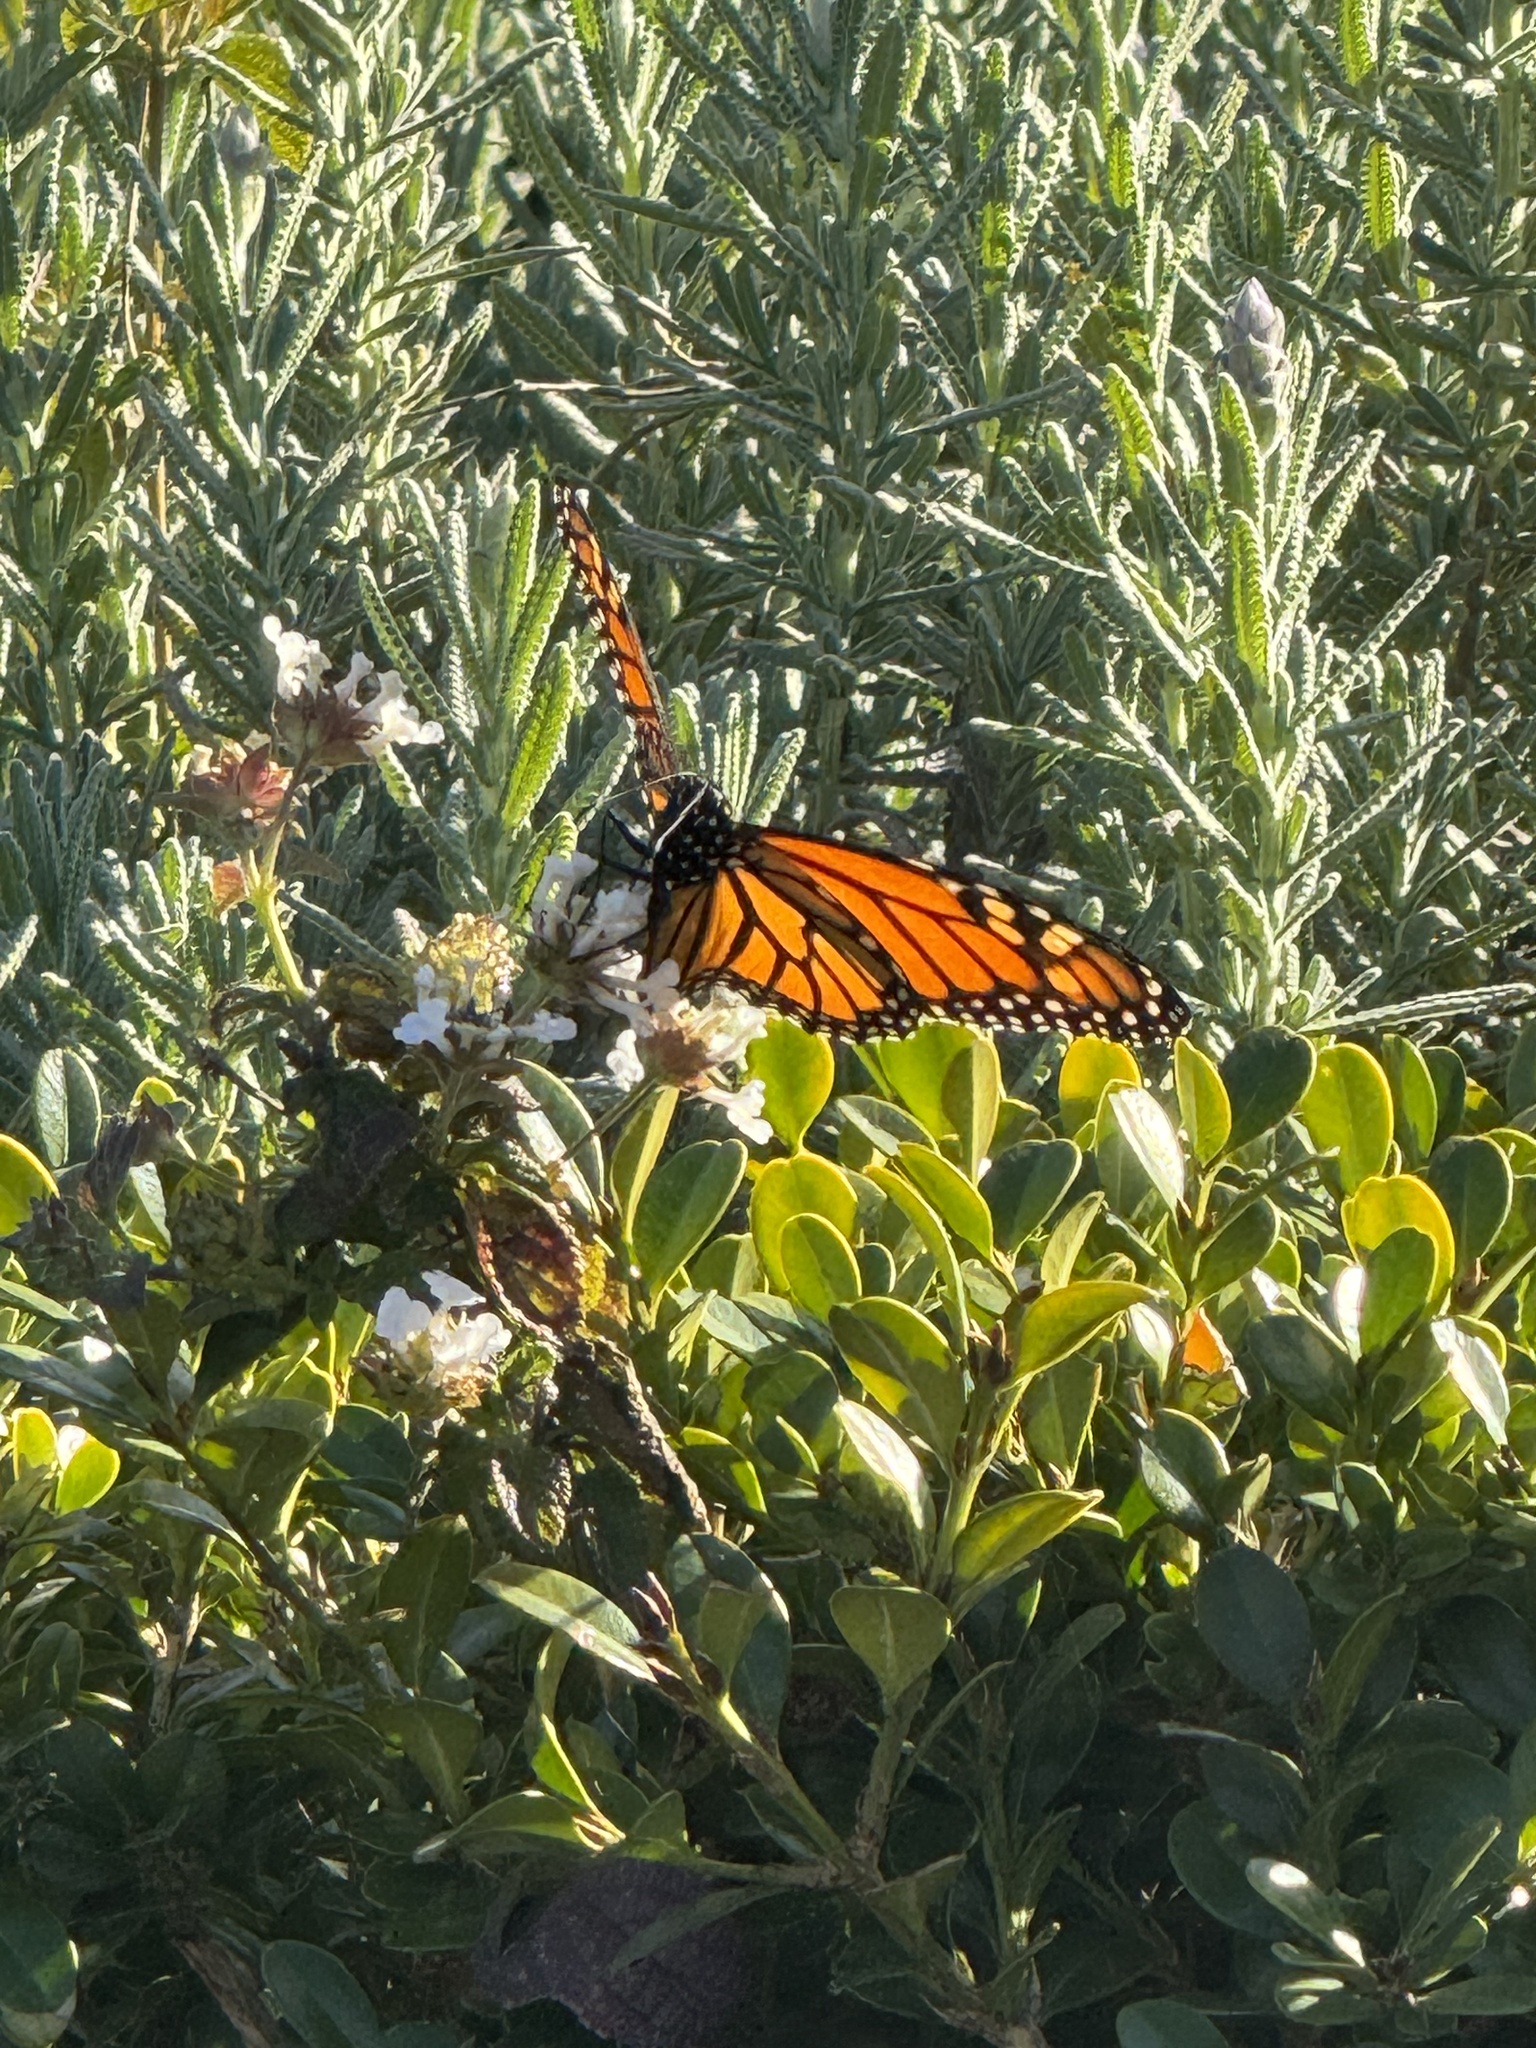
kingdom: Animalia
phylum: Arthropoda
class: Insecta
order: Lepidoptera
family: Nymphalidae
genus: Danaus
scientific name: Danaus plexippus
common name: Monarch
